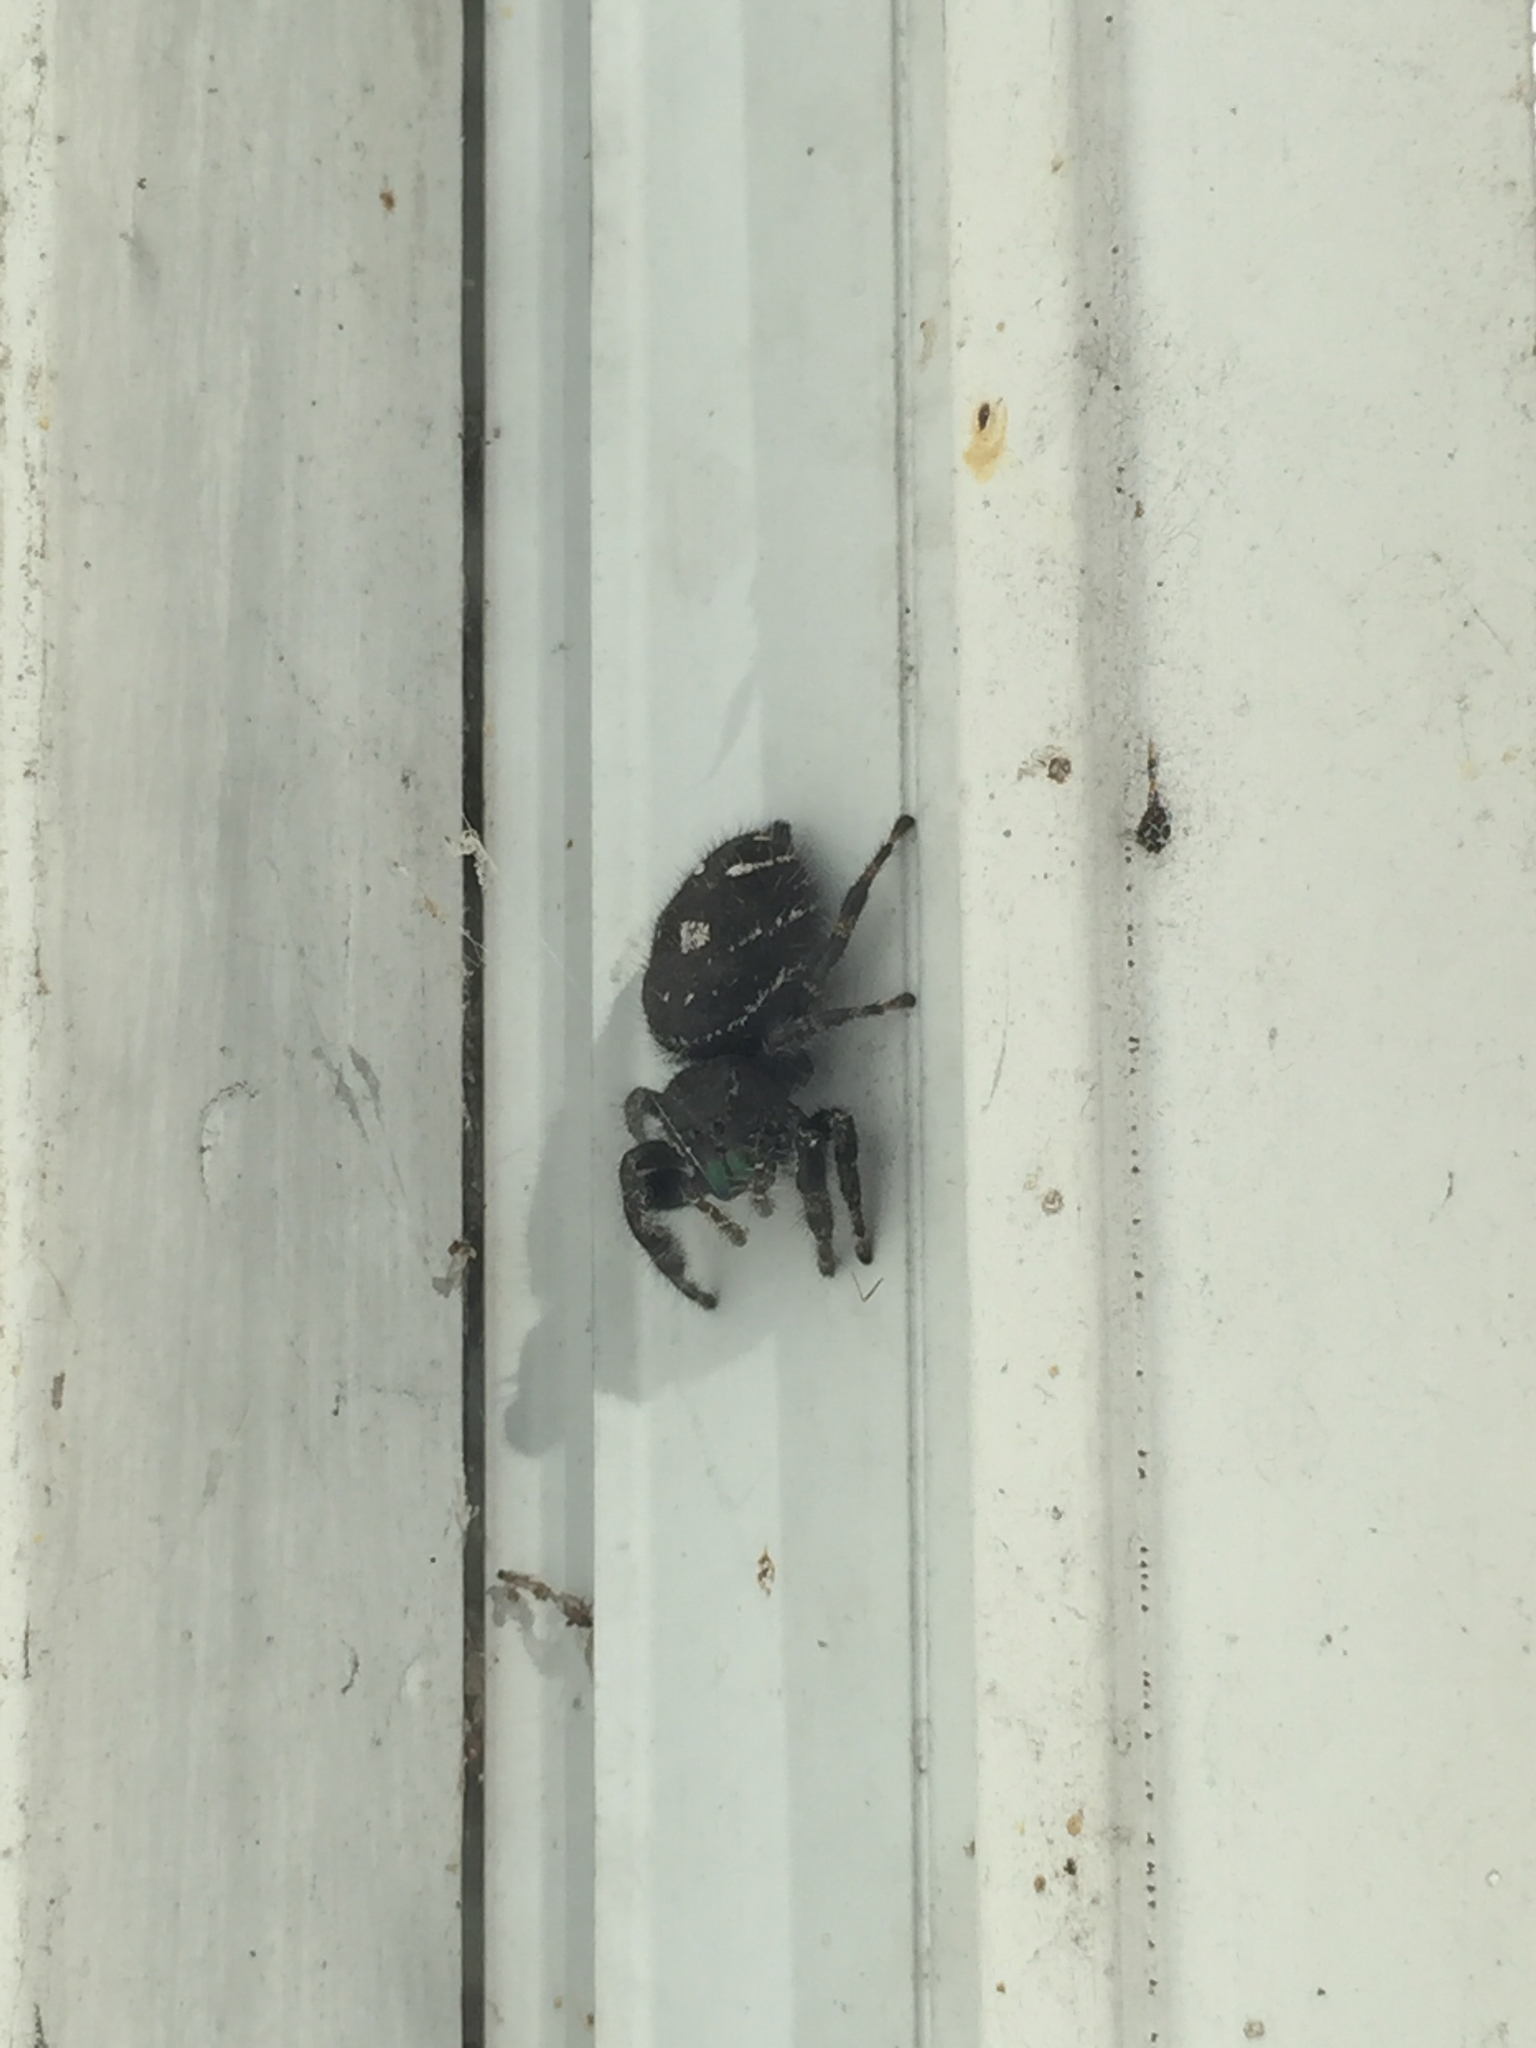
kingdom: Animalia
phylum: Arthropoda
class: Arachnida
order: Araneae
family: Salticidae
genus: Phidippus
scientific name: Phidippus audax
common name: Bold jumper
